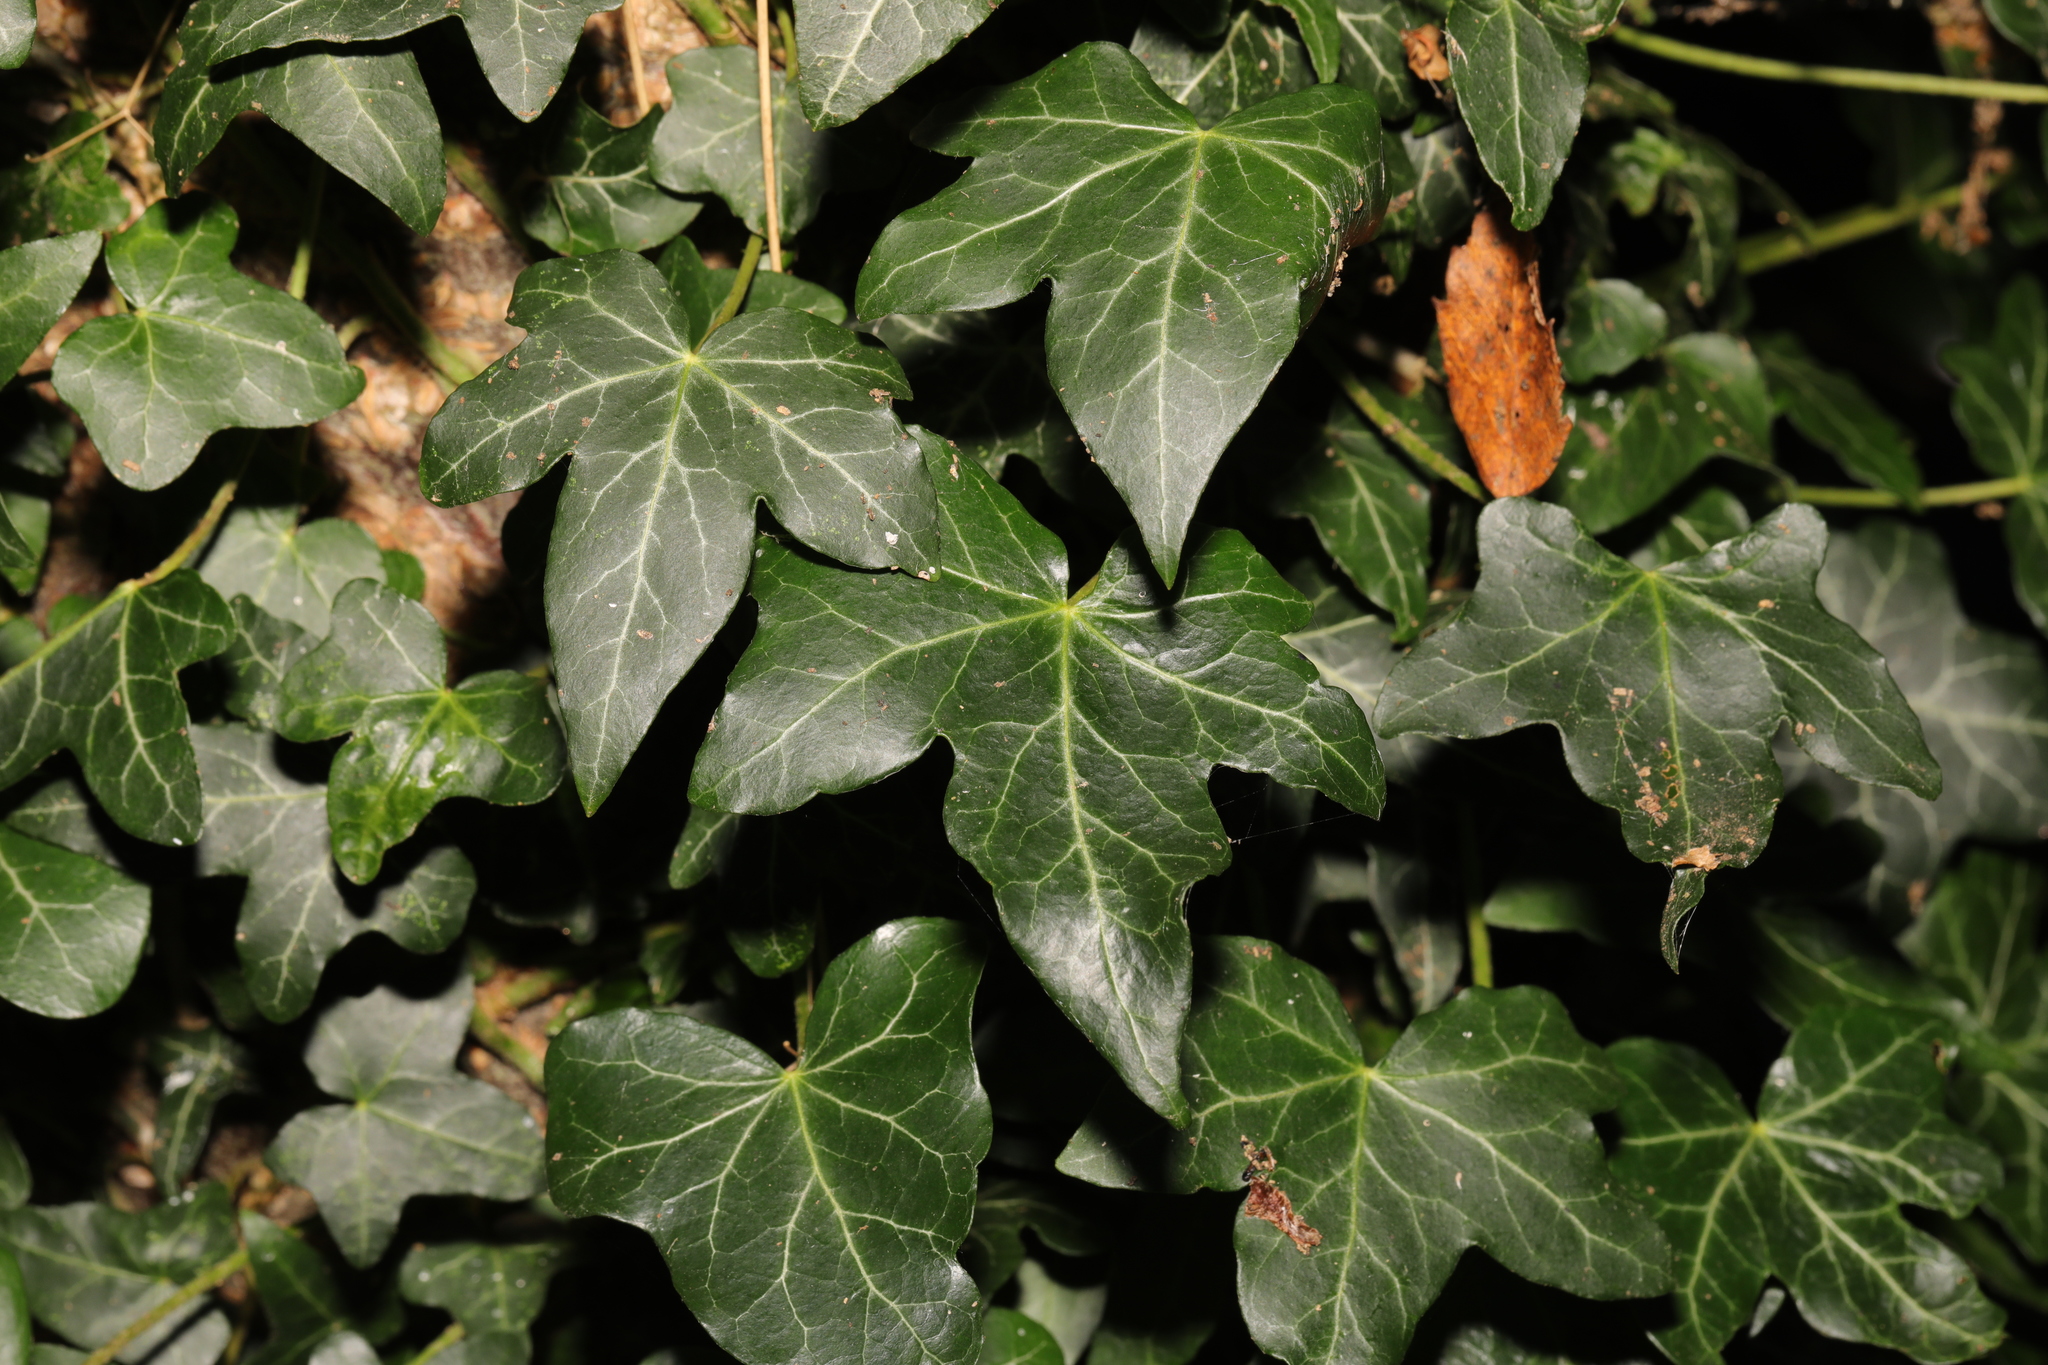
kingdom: Plantae
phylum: Tracheophyta
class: Magnoliopsida
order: Apiales
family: Araliaceae
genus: Hedera
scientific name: Hedera helix
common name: Ivy
